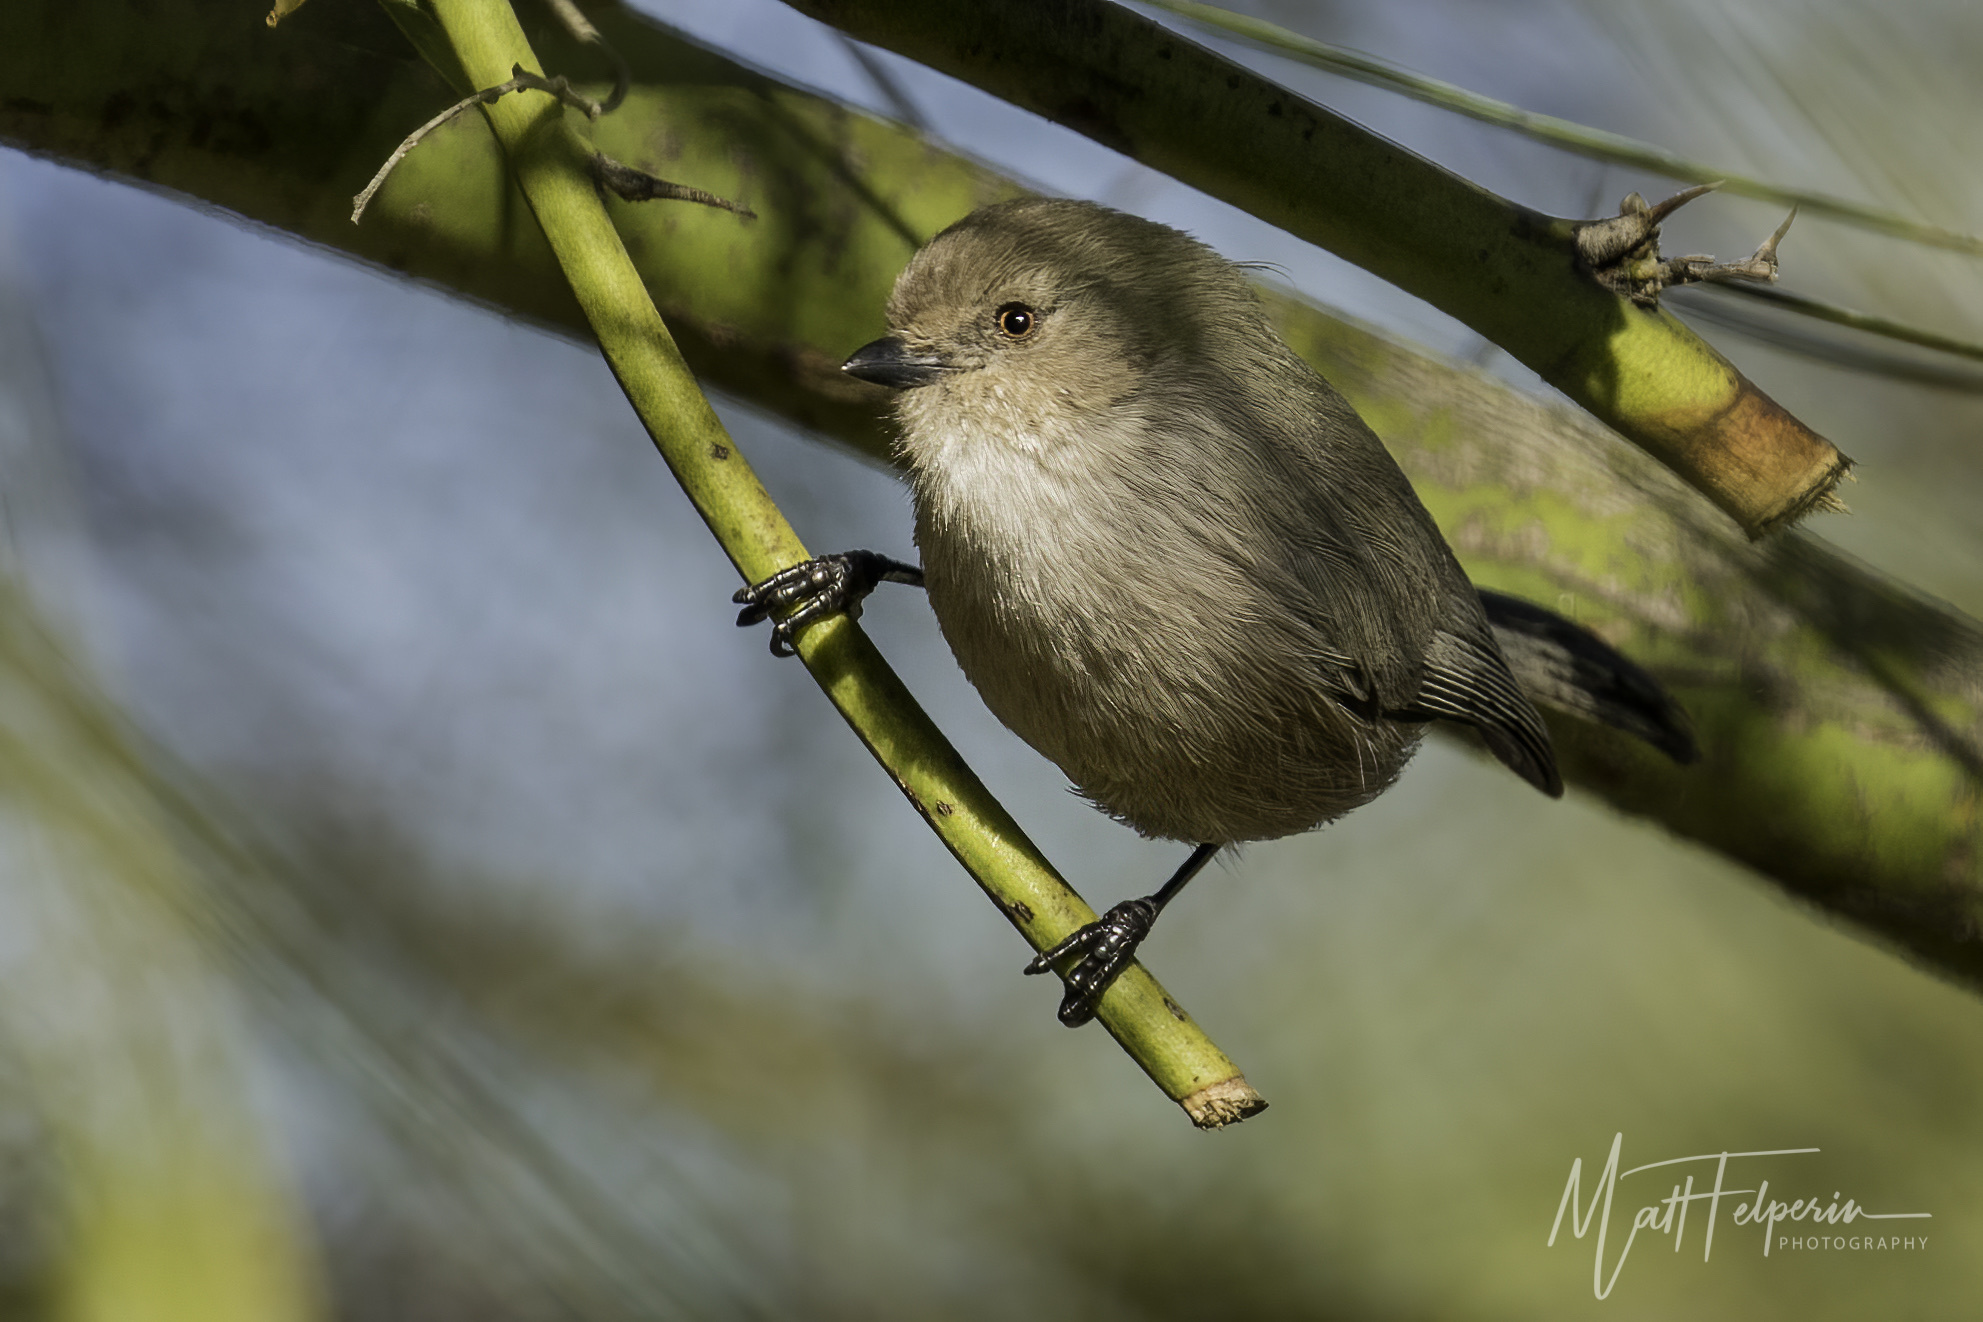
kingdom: Animalia
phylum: Chordata
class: Aves
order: Passeriformes
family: Aegithalidae
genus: Psaltriparus
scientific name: Psaltriparus minimus
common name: American bushtit
